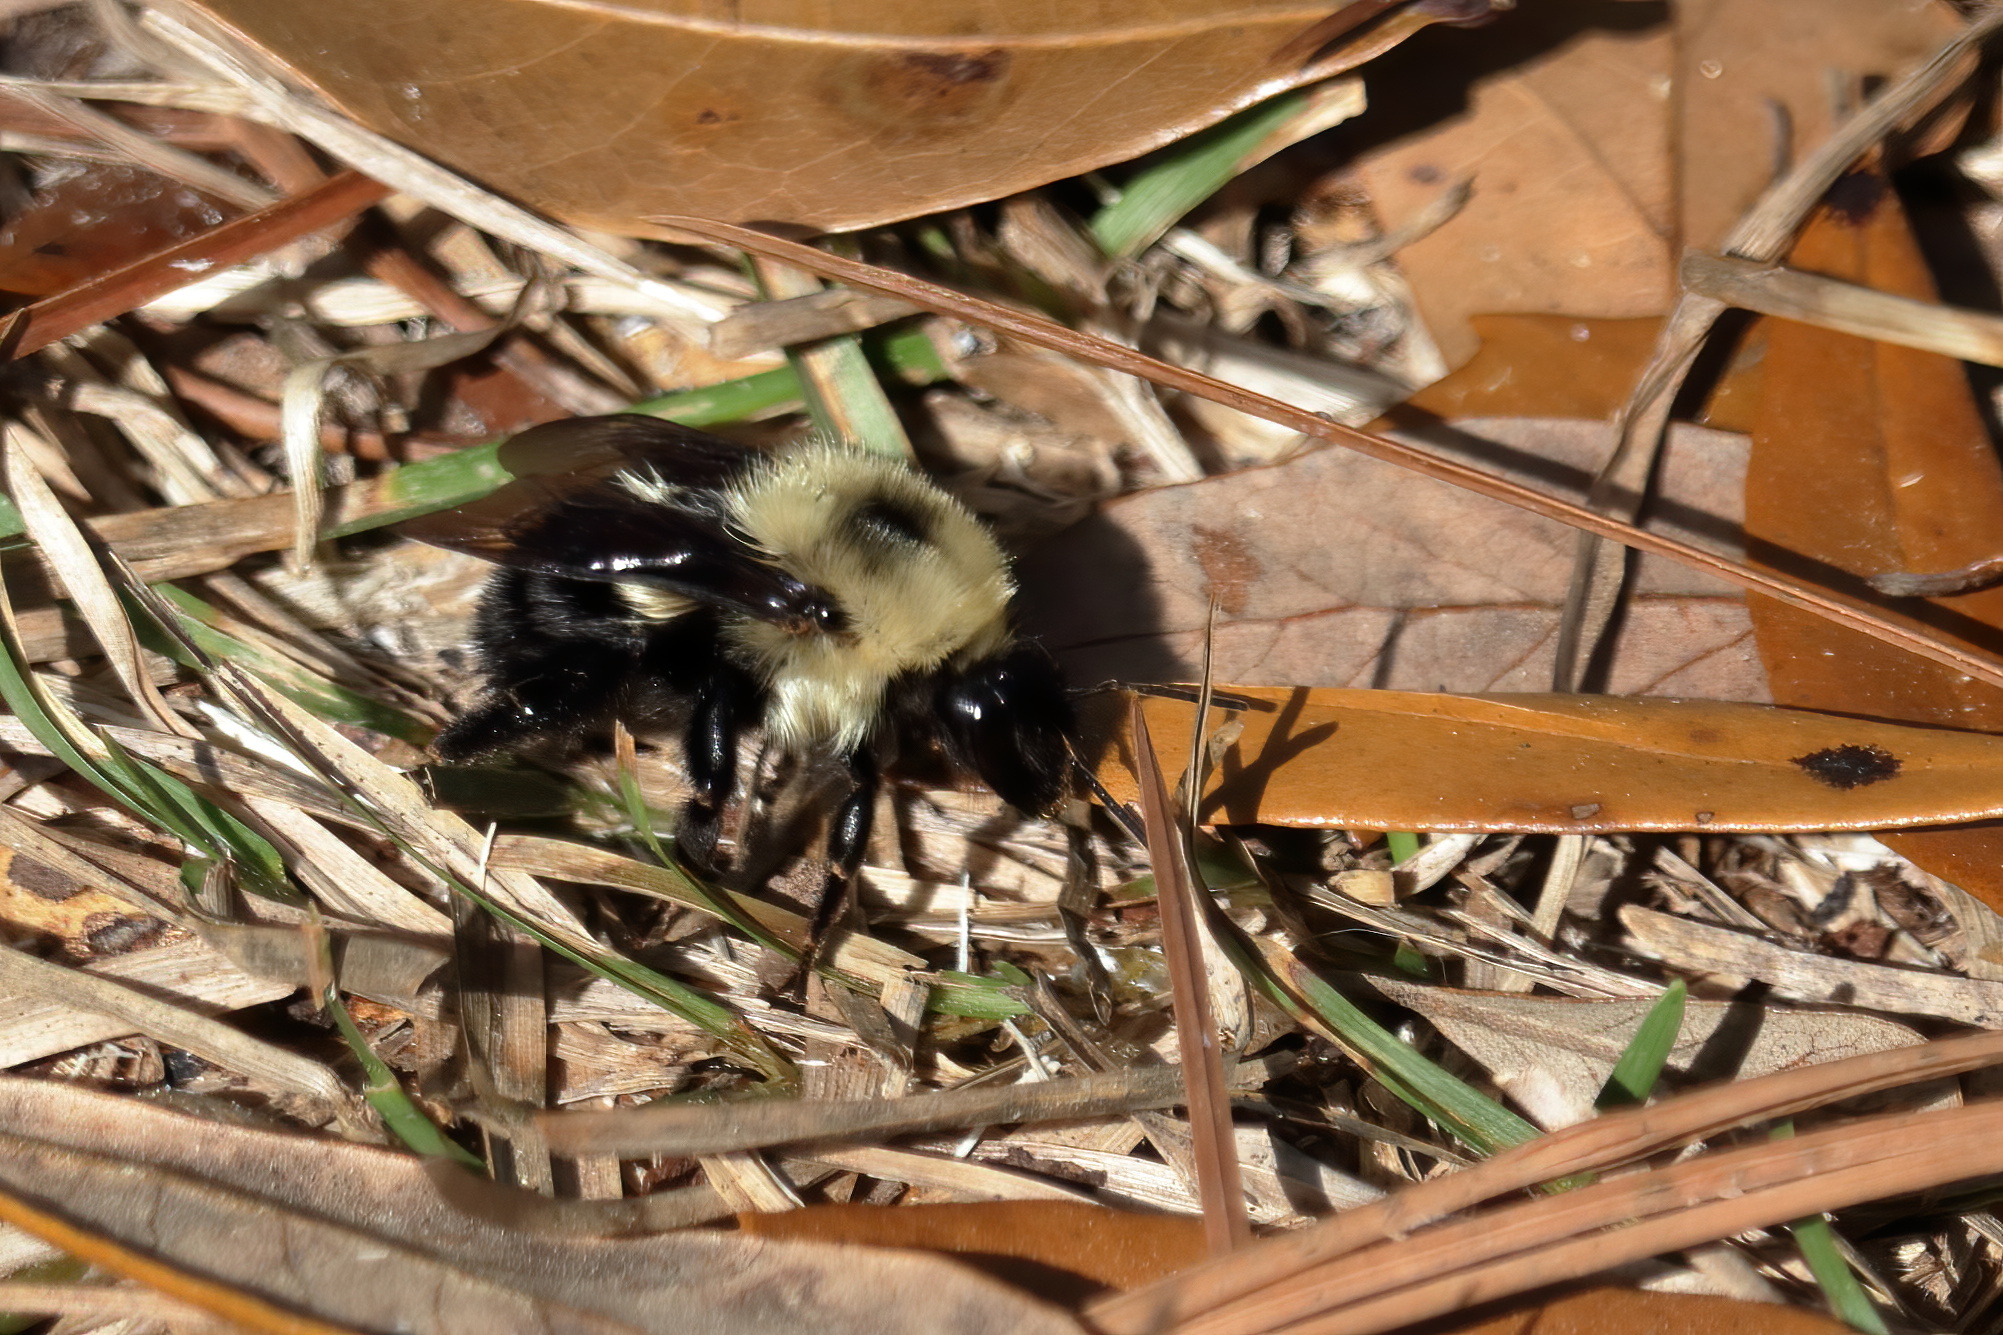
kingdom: Animalia
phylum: Arthropoda
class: Insecta
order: Hymenoptera
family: Apidae
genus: Bombus
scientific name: Bombus bimaculatus
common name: Two-spotted bumble bee
